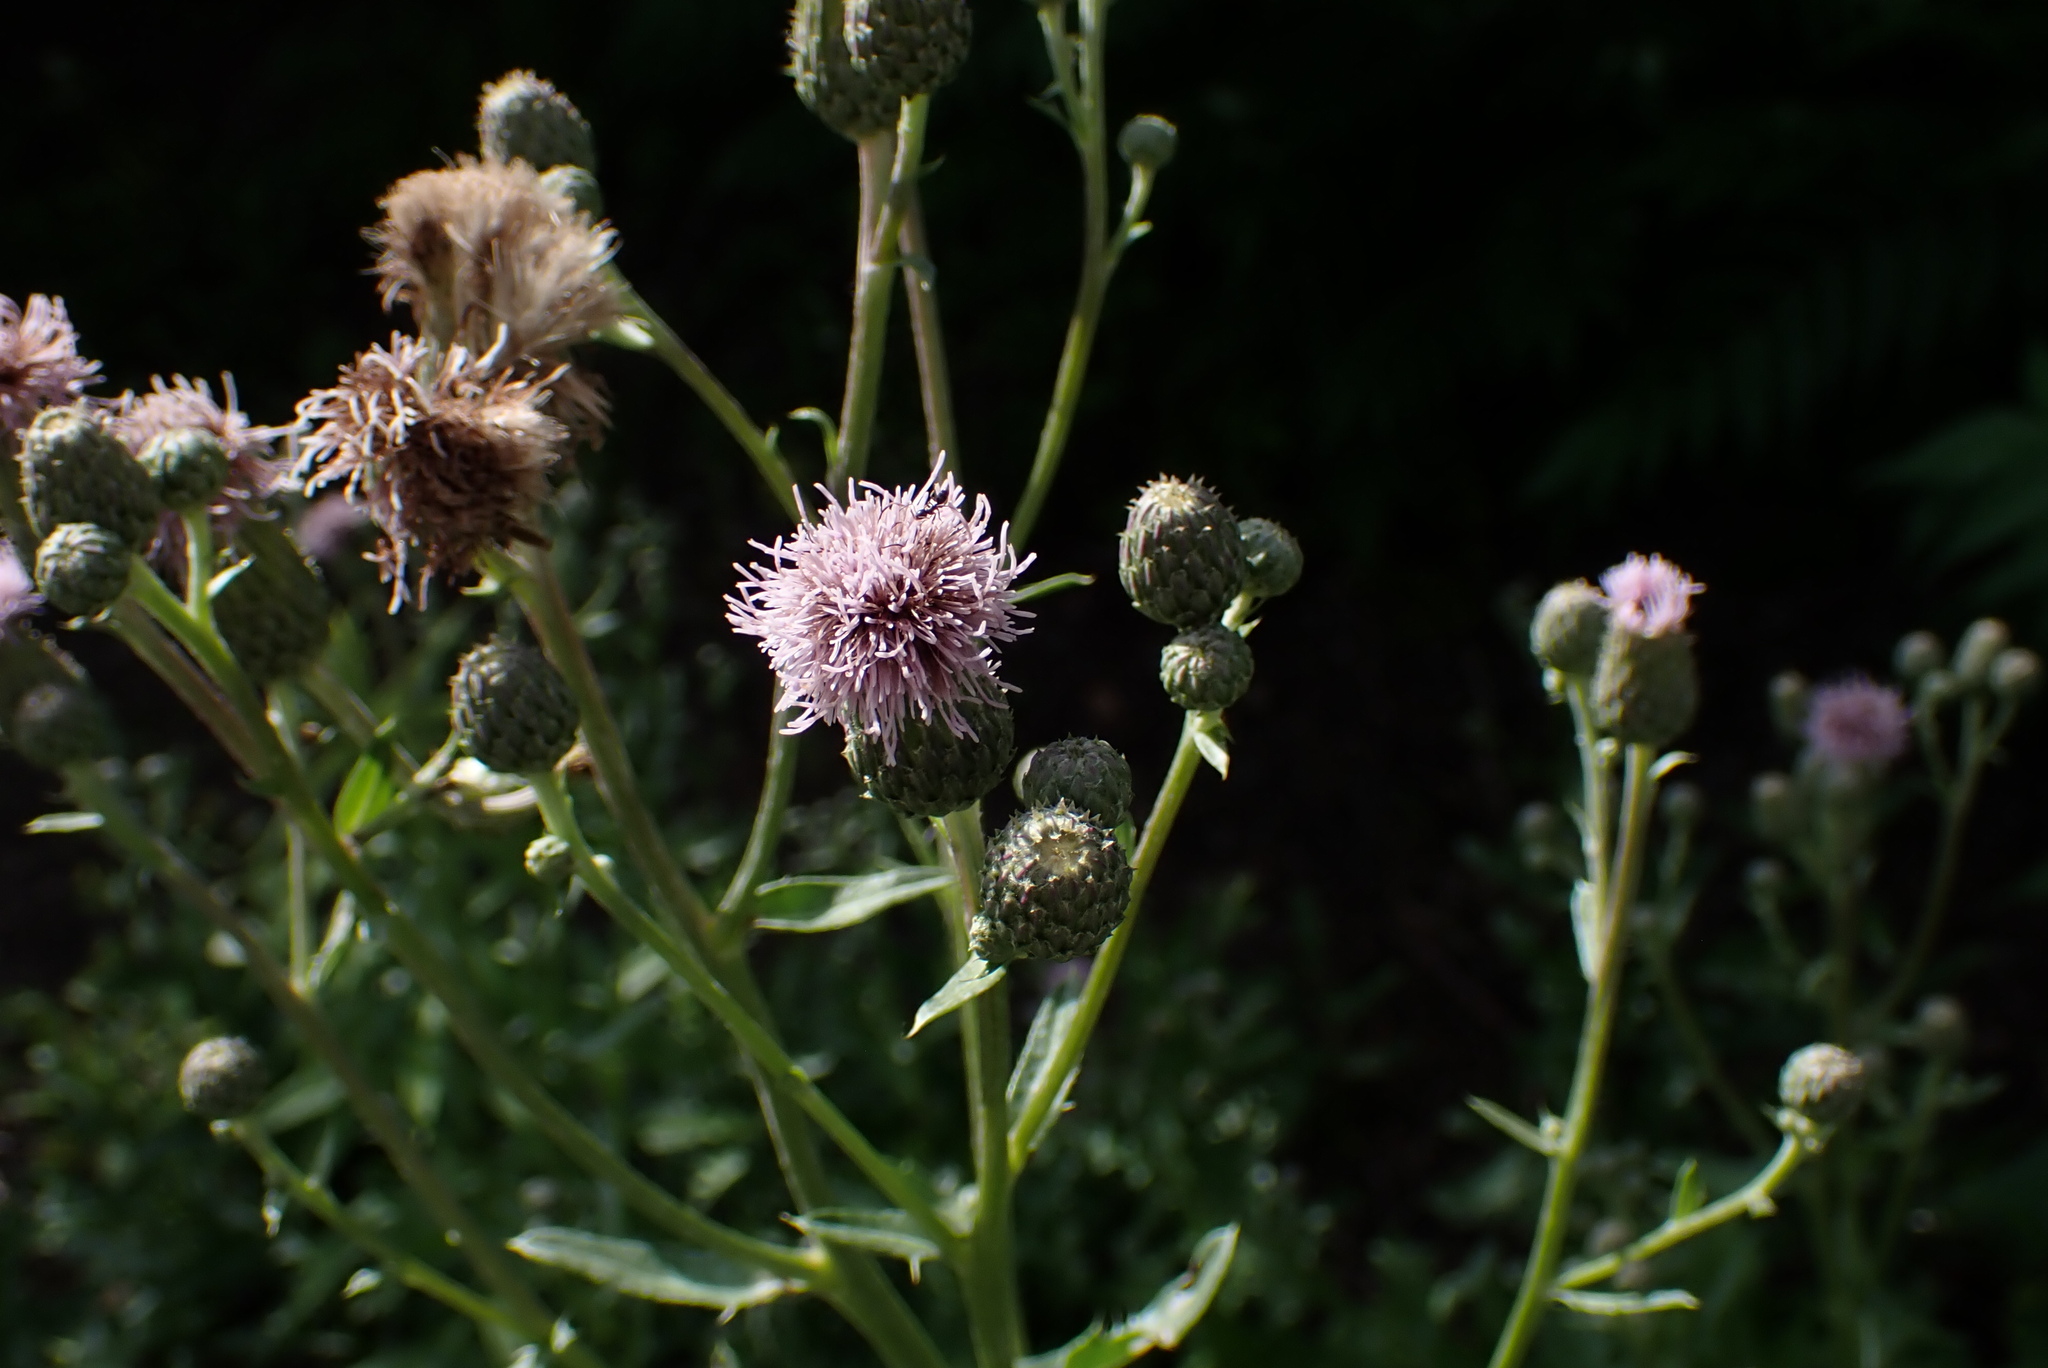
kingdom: Plantae
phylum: Tracheophyta
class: Magnoliopsida
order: Asterales
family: Asteraceae
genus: Cirsium
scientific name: Cirsium arvense
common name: Creeping thistle
